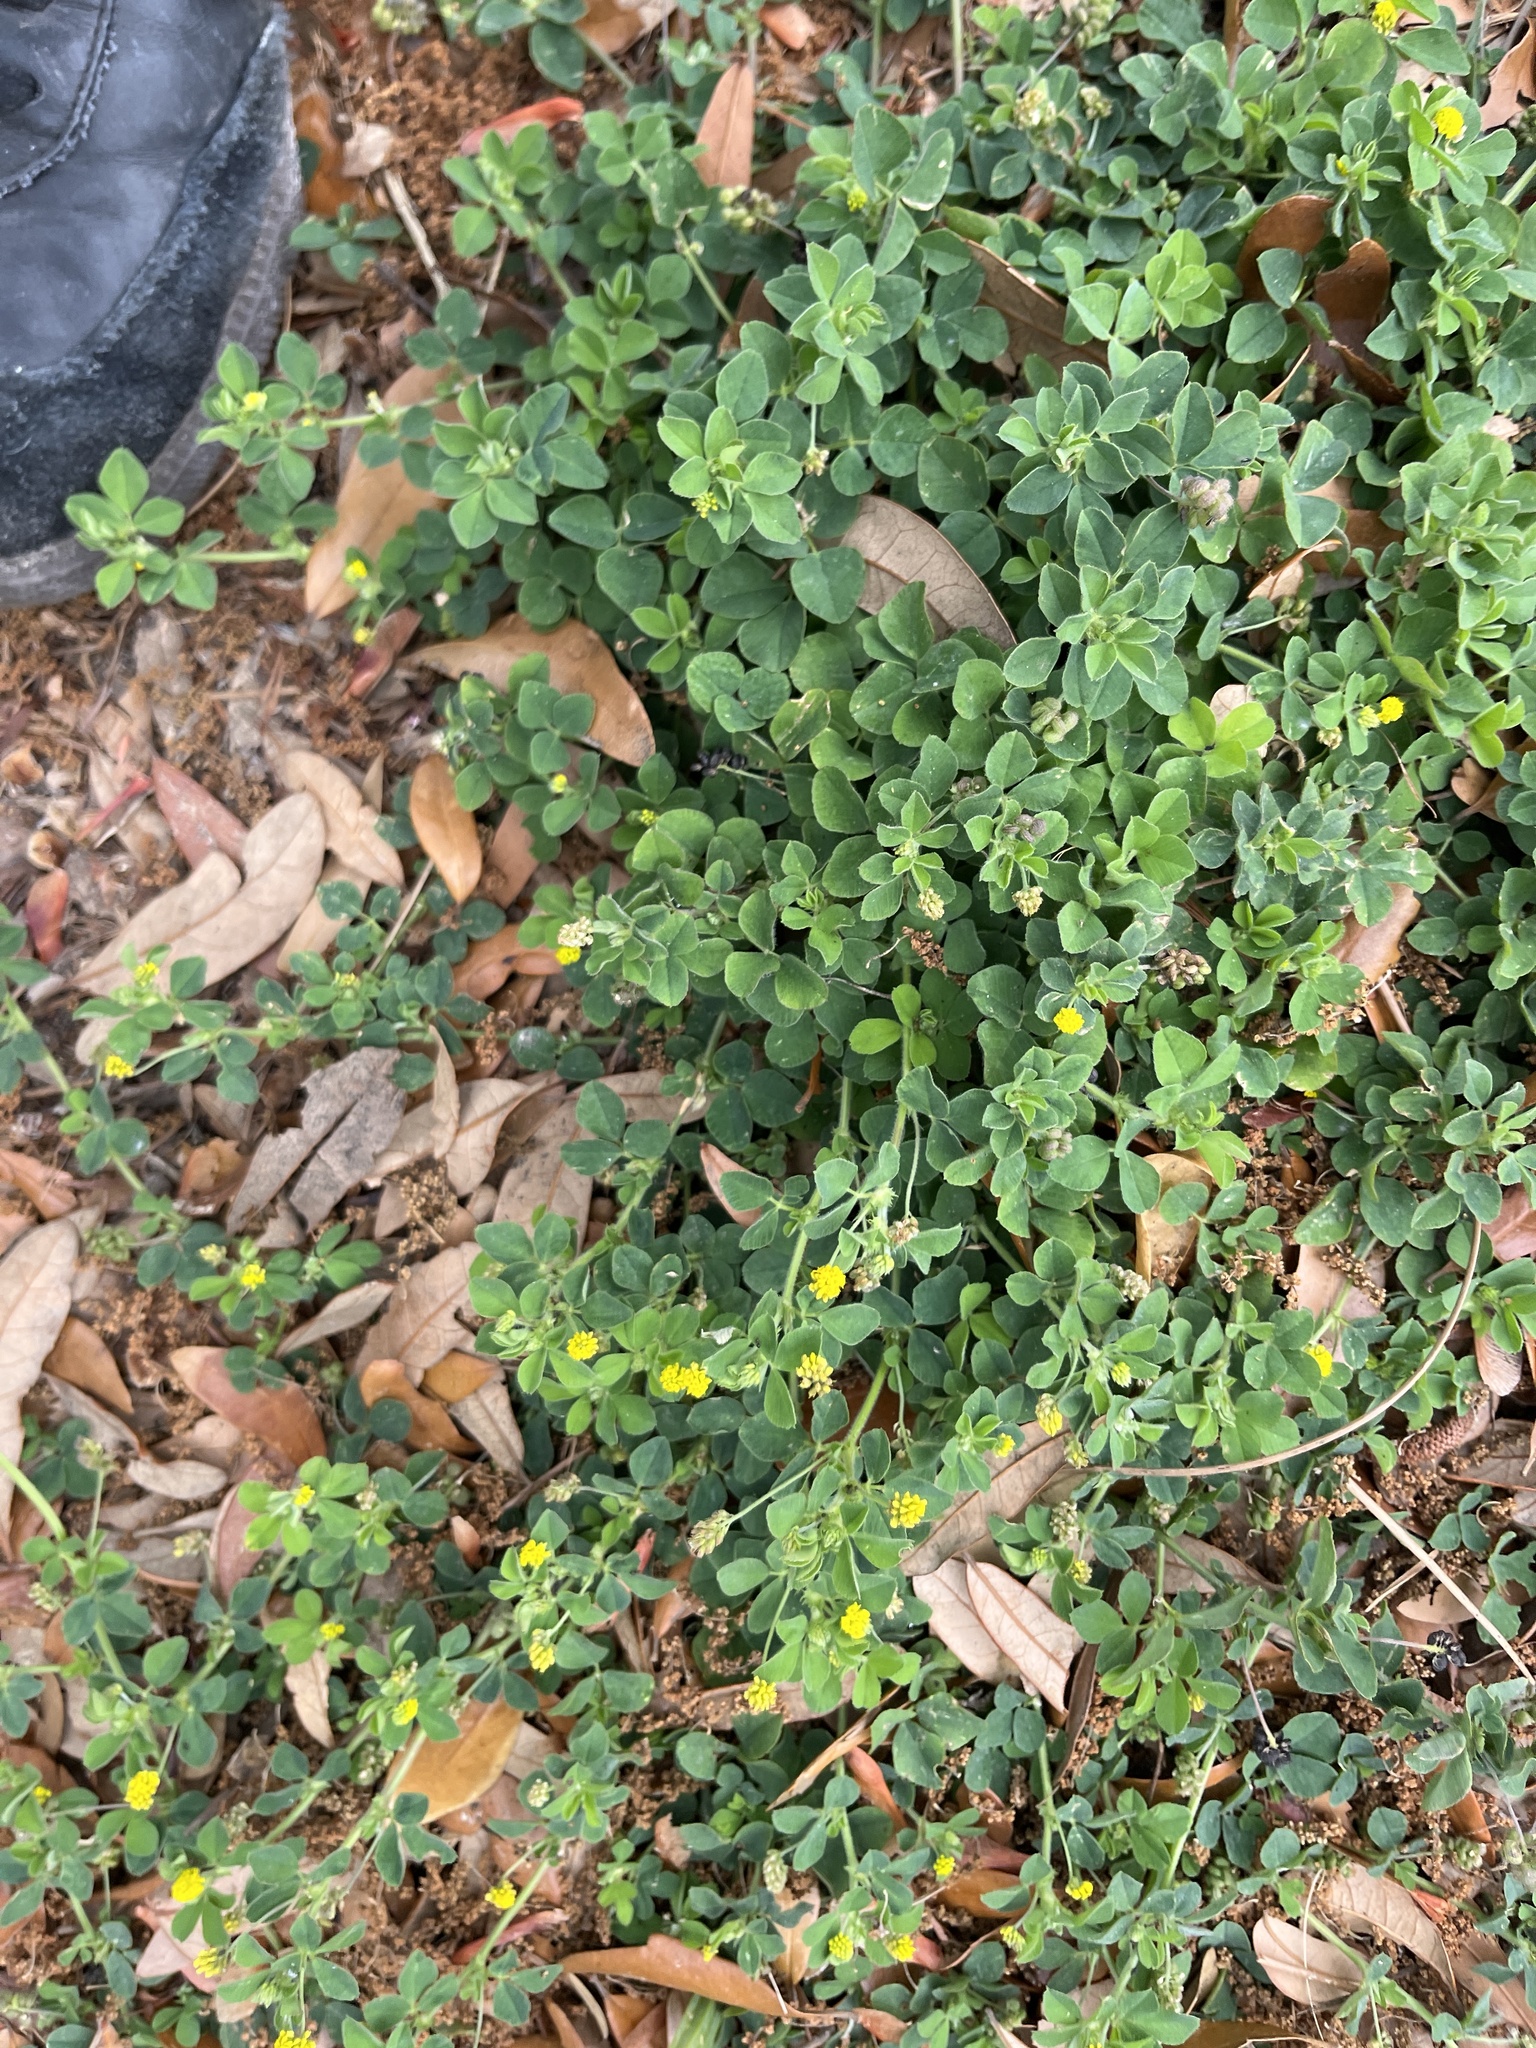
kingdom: Plantae
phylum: Tracheophyta
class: Magnoliopsida
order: Fabales
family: Fabaceae
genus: Medicago
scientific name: Medicago lupulina
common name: Black medick
